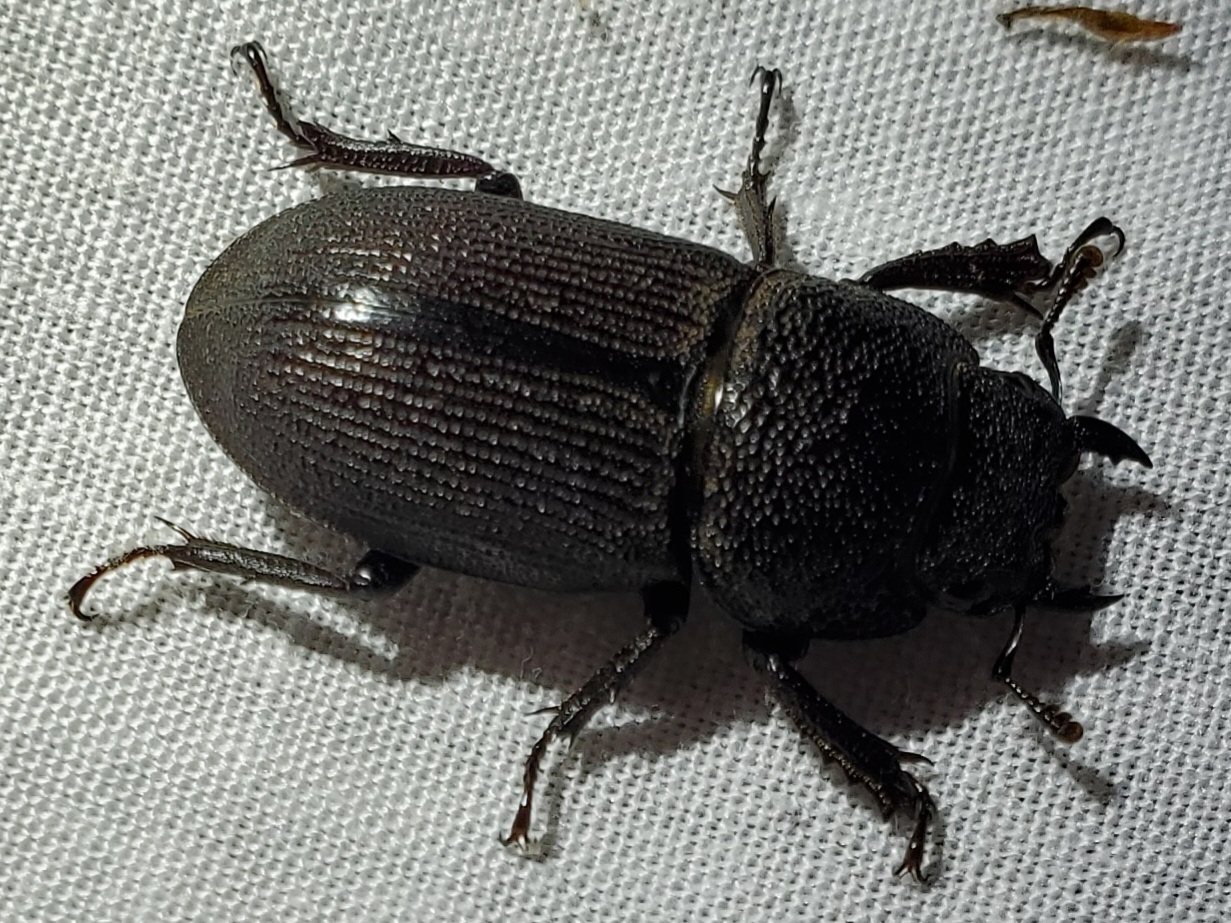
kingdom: Animalia
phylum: Arthropoda
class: Insecta
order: Coleoptera
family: Lucanidae
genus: Dorcus
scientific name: Dorcus brevis
